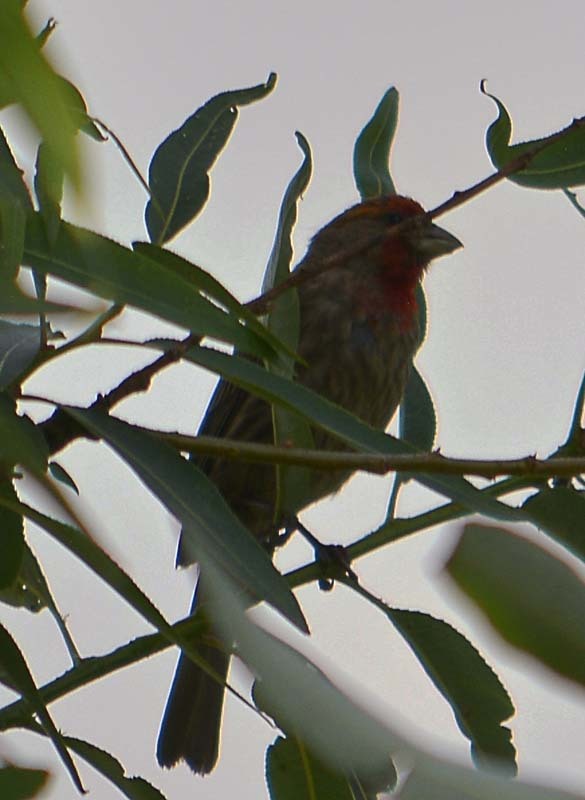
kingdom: Animalia
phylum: Chordata
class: Aves
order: Passeriformes
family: Fringillidae
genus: Haemorhous
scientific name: Haemorhous mexicanus
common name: House finch
